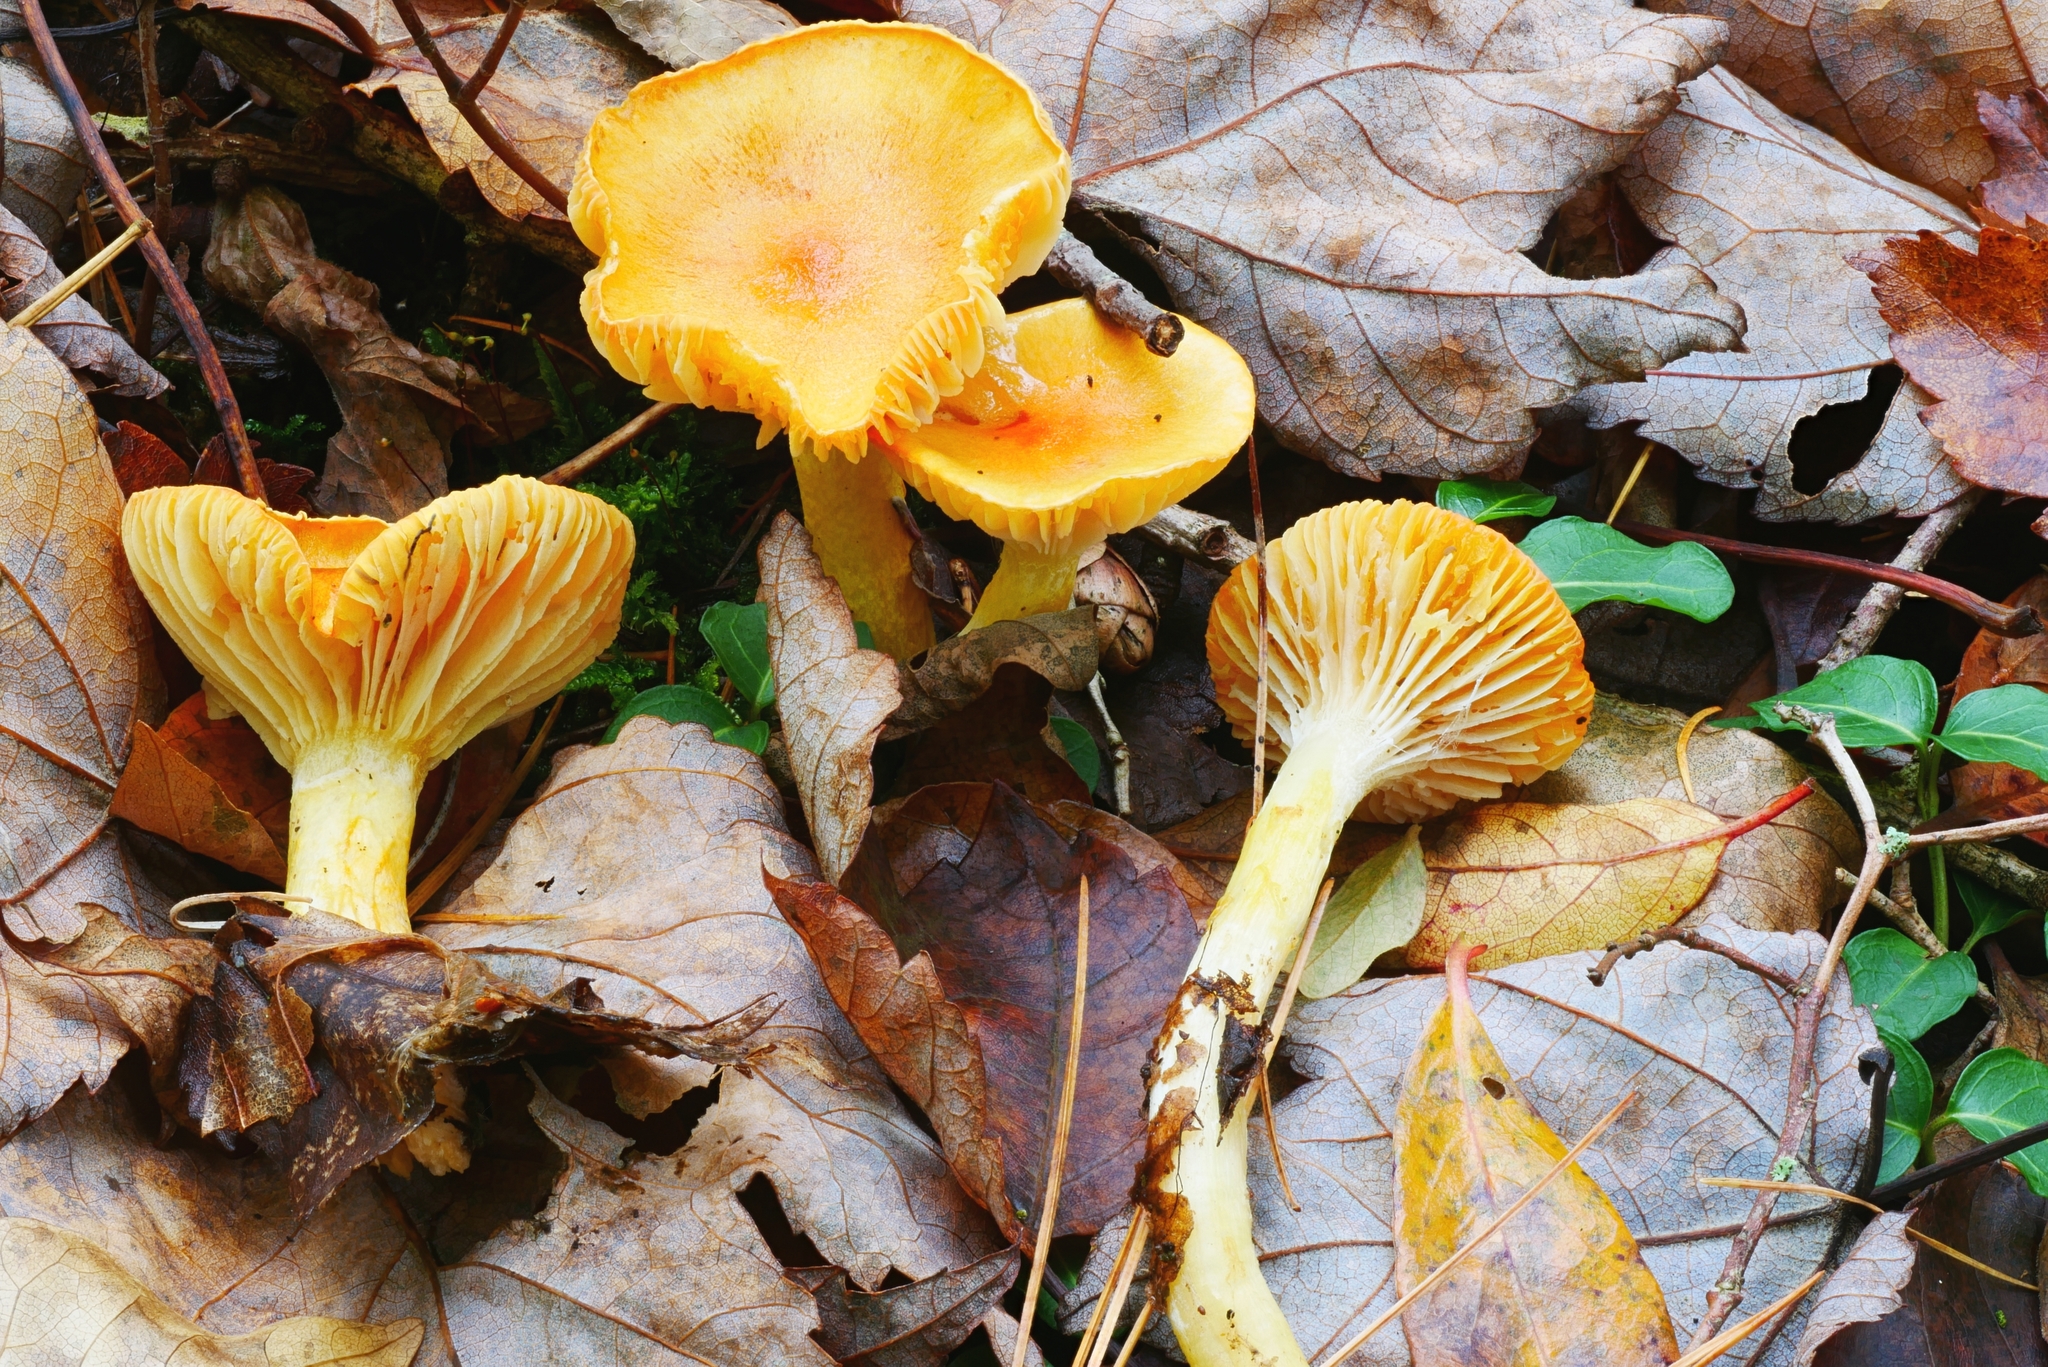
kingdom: Fungi
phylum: Basidiomycota
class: Agaricomycetes
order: Agaricales
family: Hygrophoraceae
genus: Hygrophorus
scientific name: Hygrophorus speciosus
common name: Splendid woodwax
